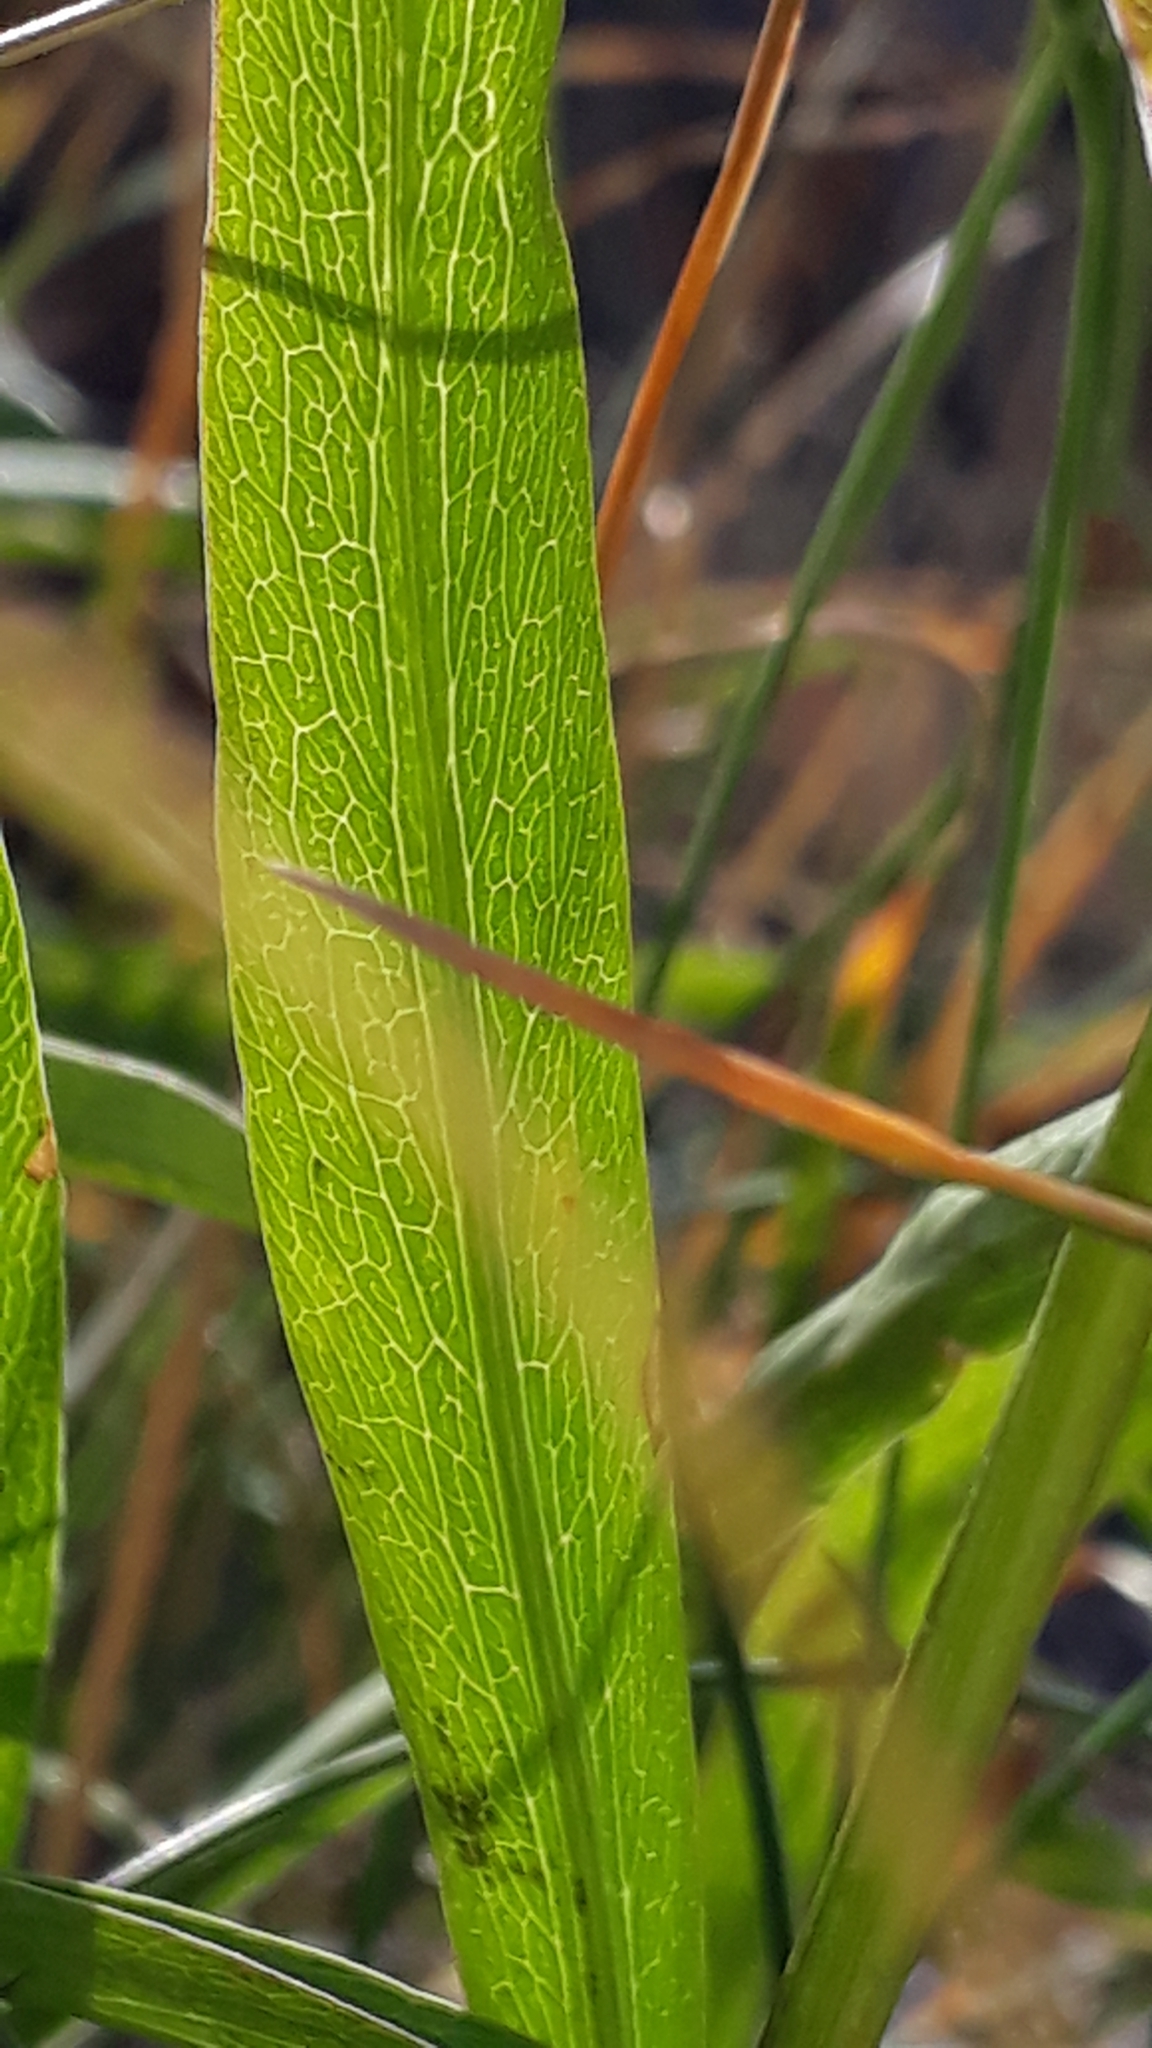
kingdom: Plantae
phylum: Tracheophyta
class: Magnoliopsida
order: Apiales
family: Apiaceae
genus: Bupleurum
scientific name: Bupleurum stellatum
